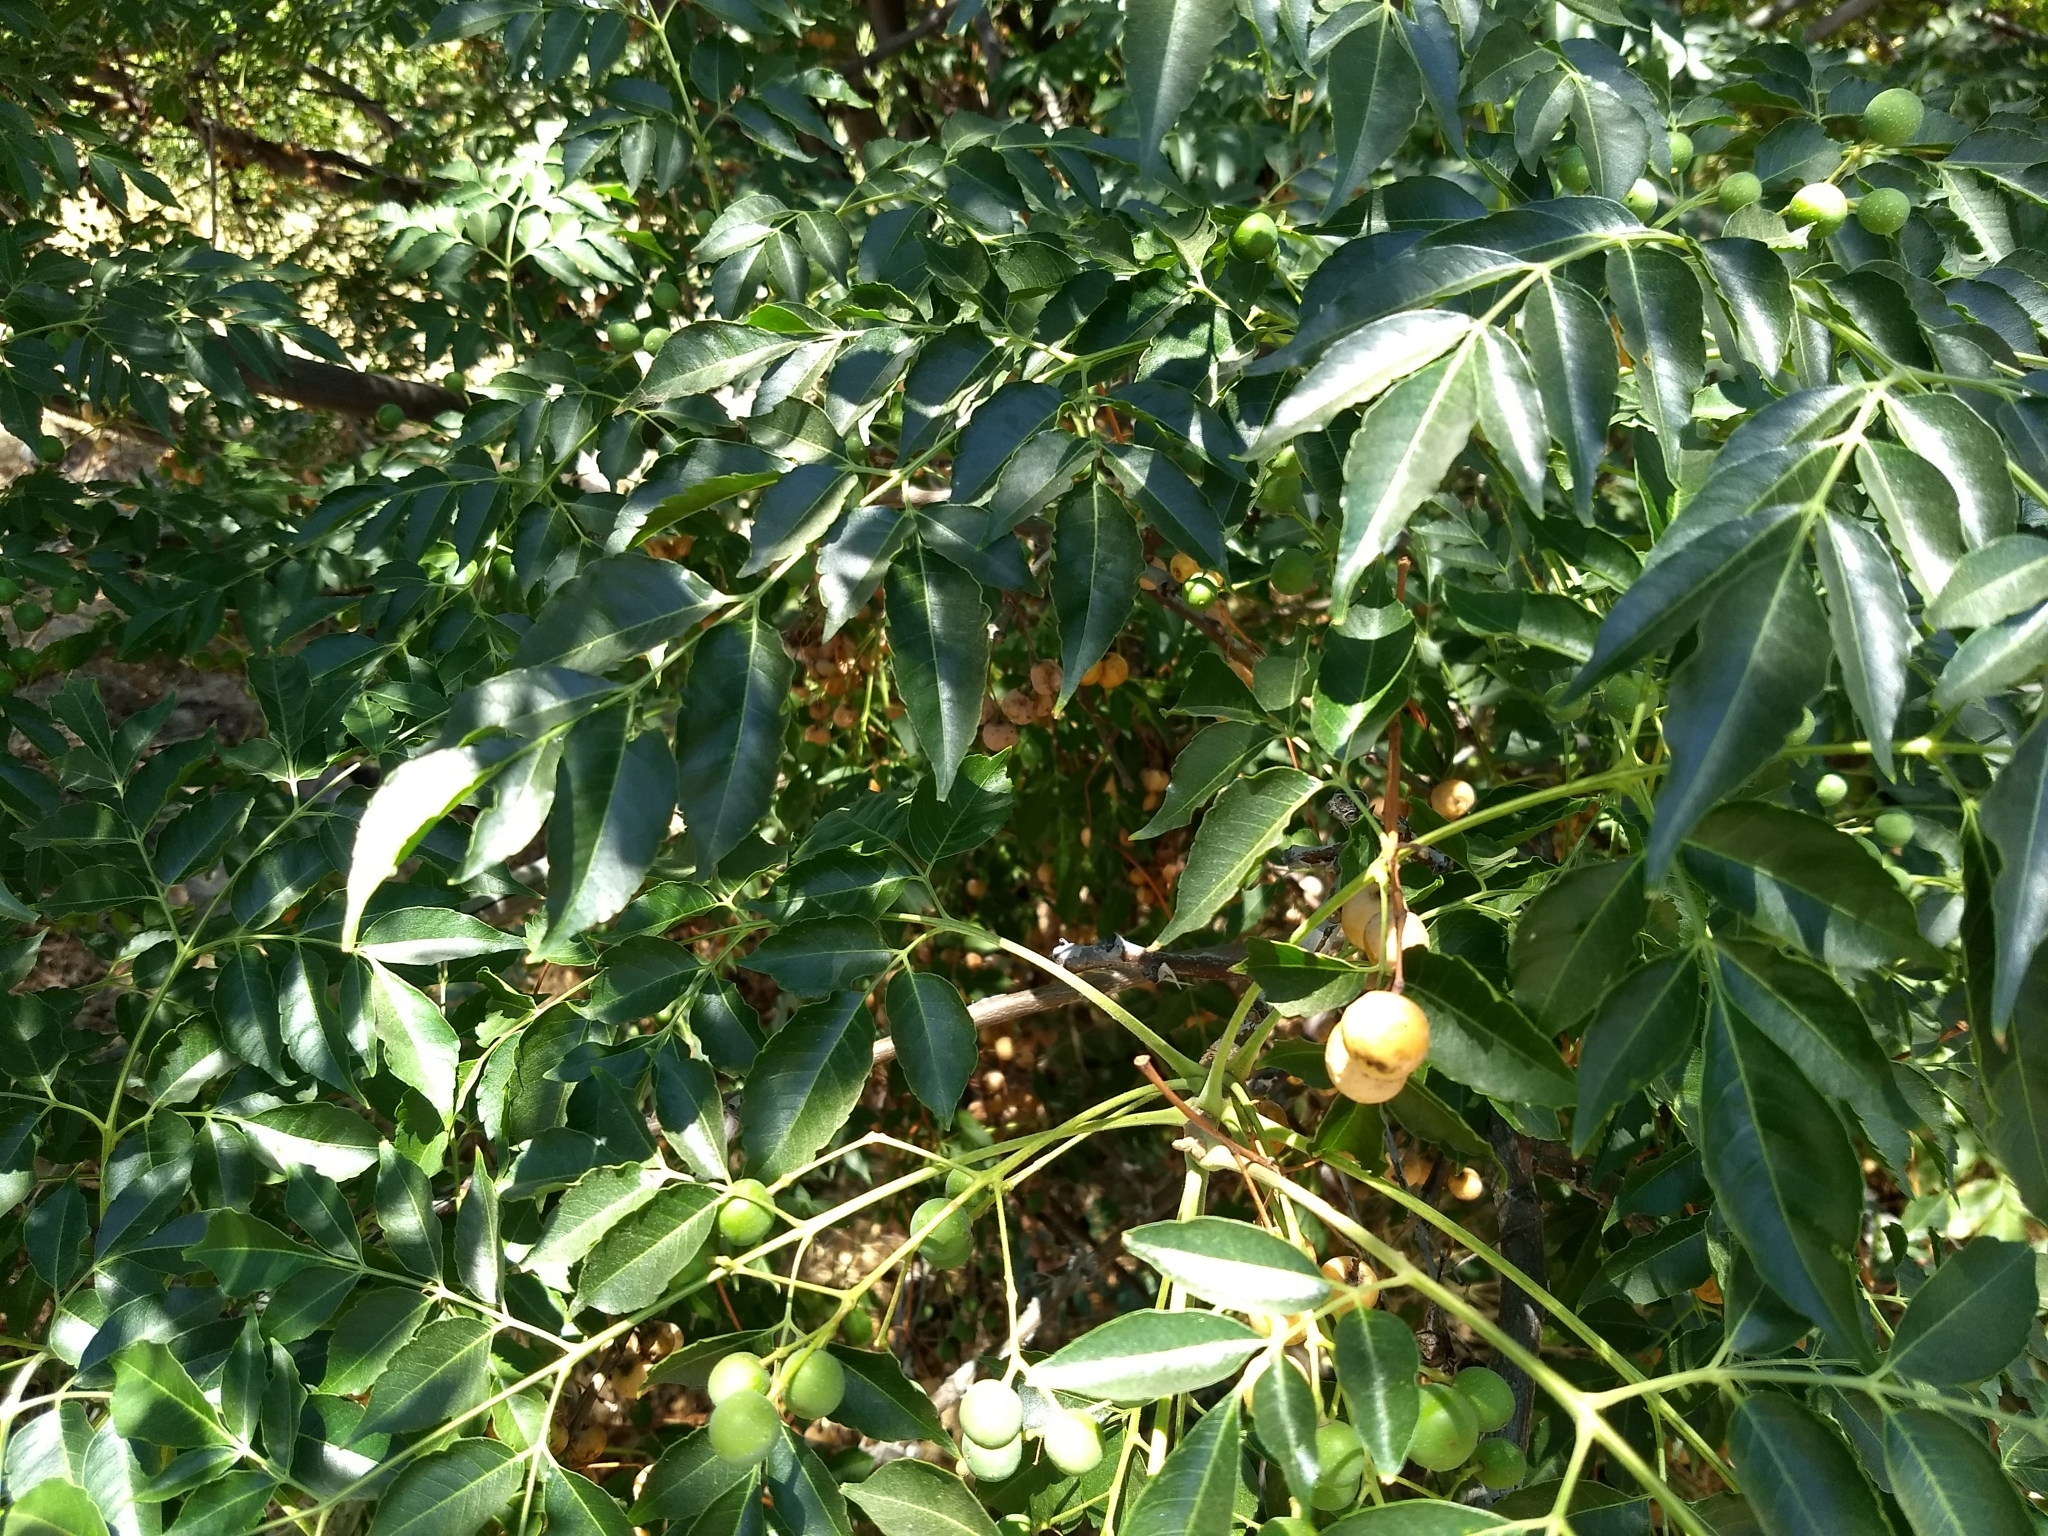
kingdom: Plantae
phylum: Tracheophyta
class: Magnoliopsida
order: Sapindales
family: Meliaceae
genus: Melia
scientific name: Melia azedarach
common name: Chinaberrytree
